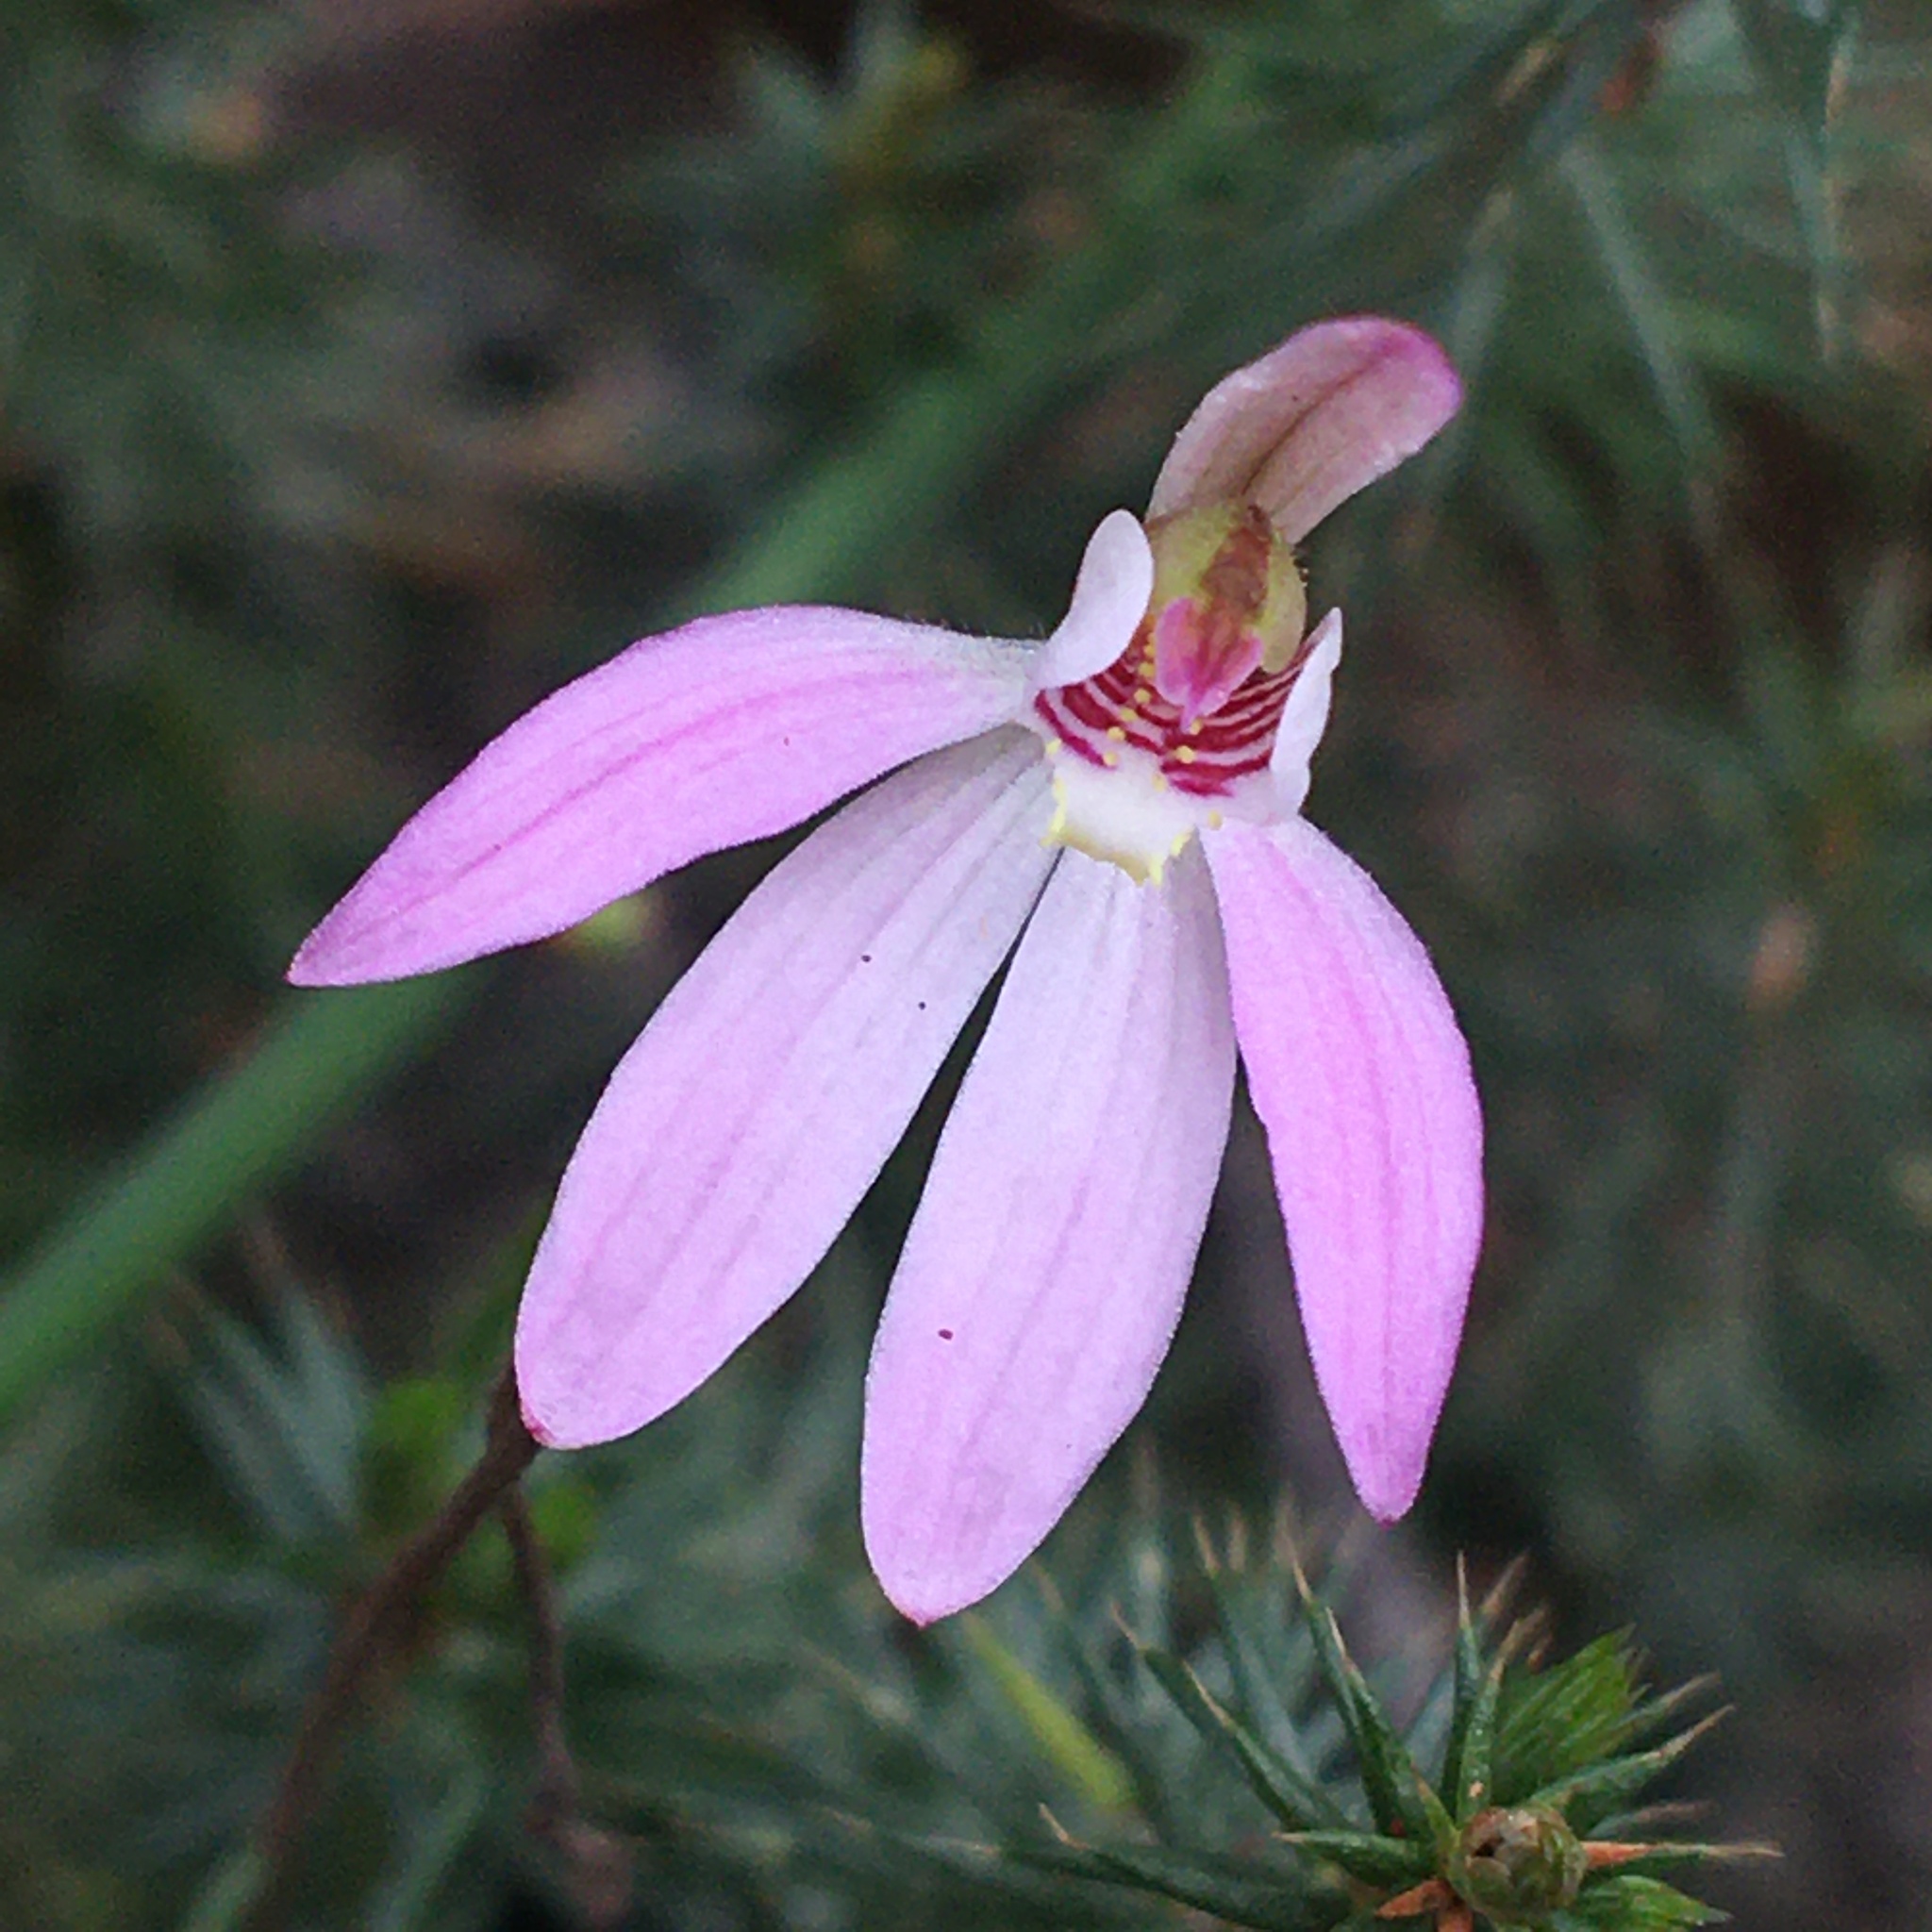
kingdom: Plantae
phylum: Tracheophyta
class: Liliopsida
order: Asparagales
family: Orchidaceae
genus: Caladenia
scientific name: Caladenia carnea
